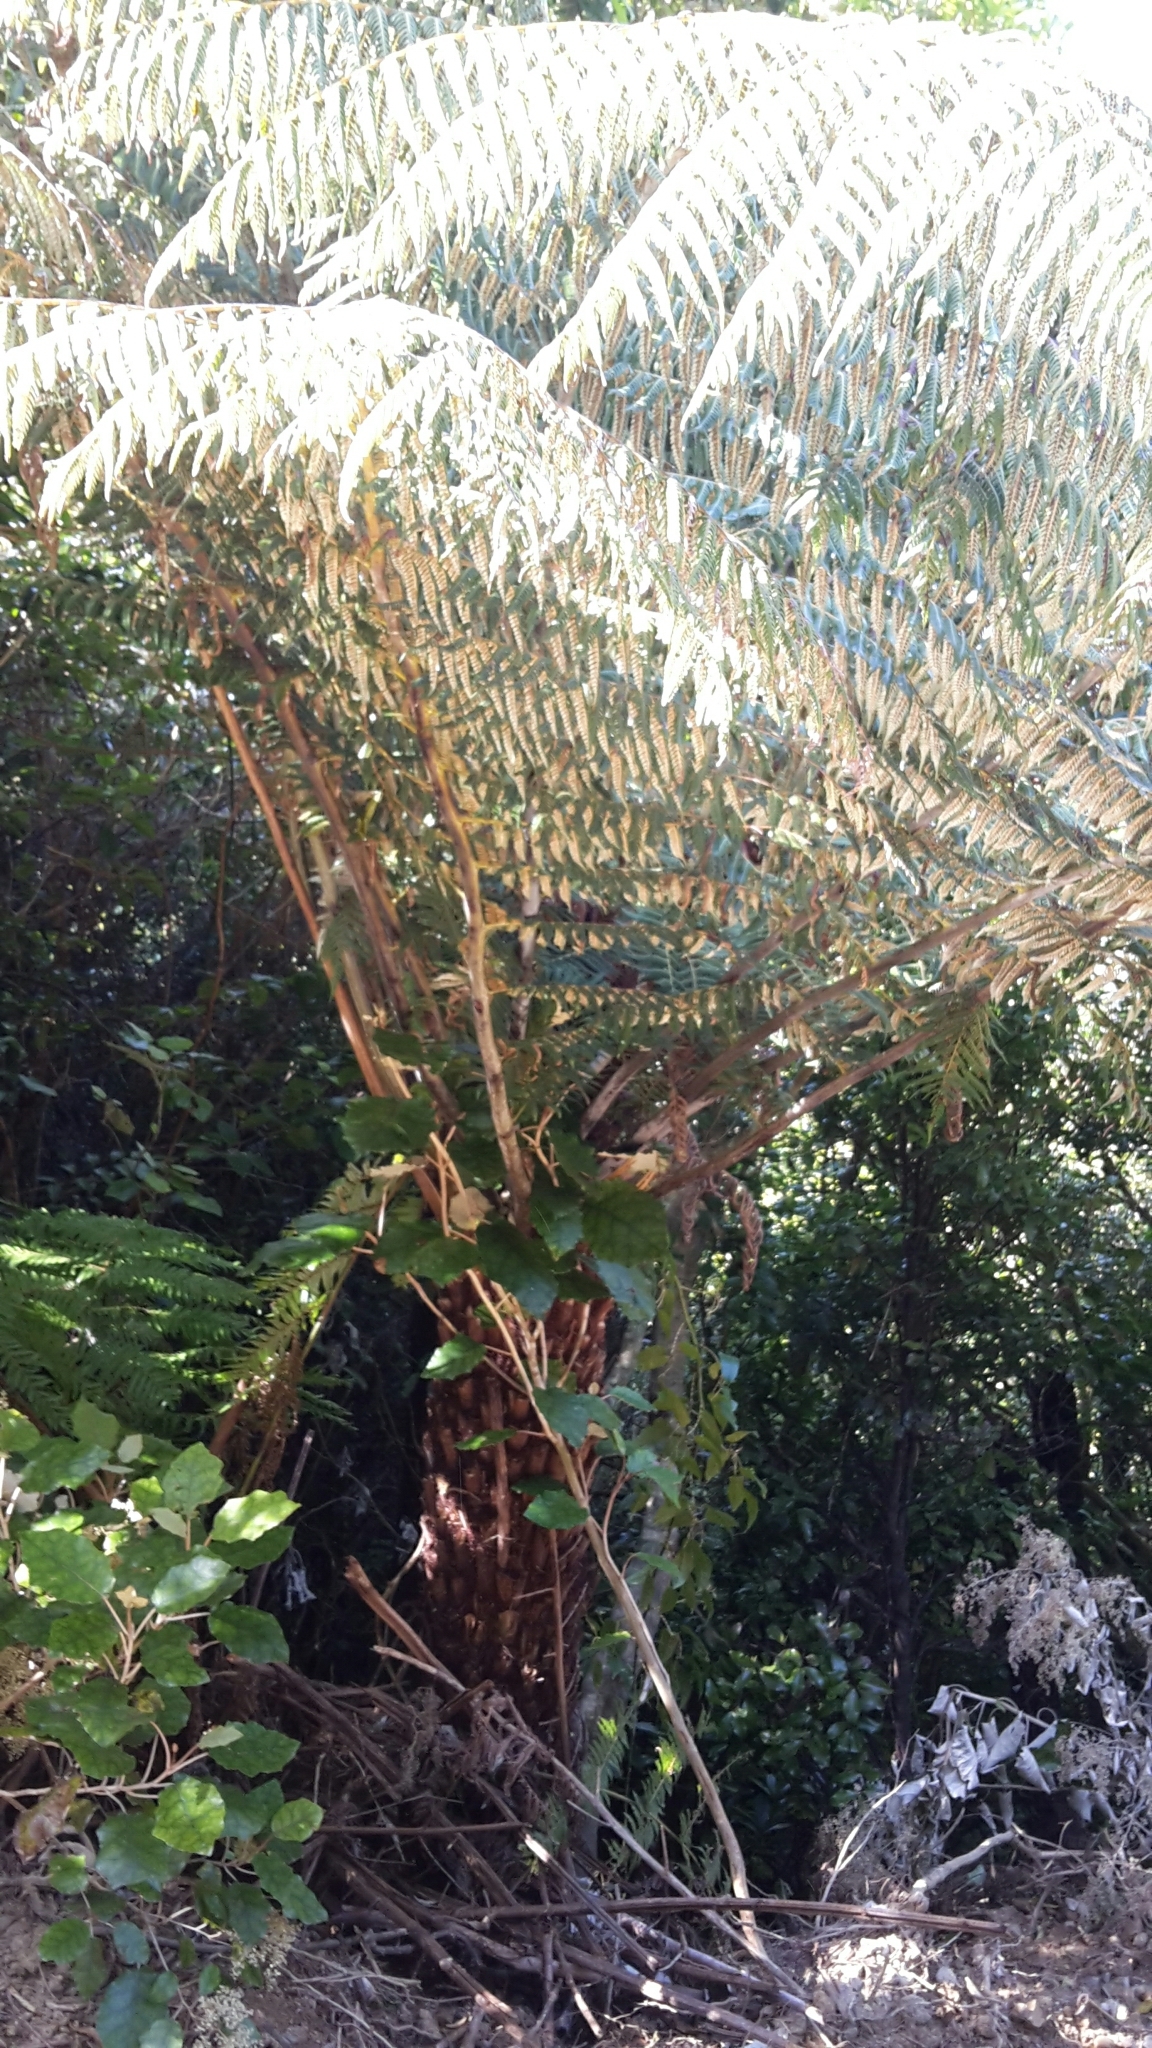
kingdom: Plantae
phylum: Tracheophyta
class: Polypodiopsida
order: Cyatheales
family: Cyatheaceae
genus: Alsophila
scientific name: Alsophila dealbata
